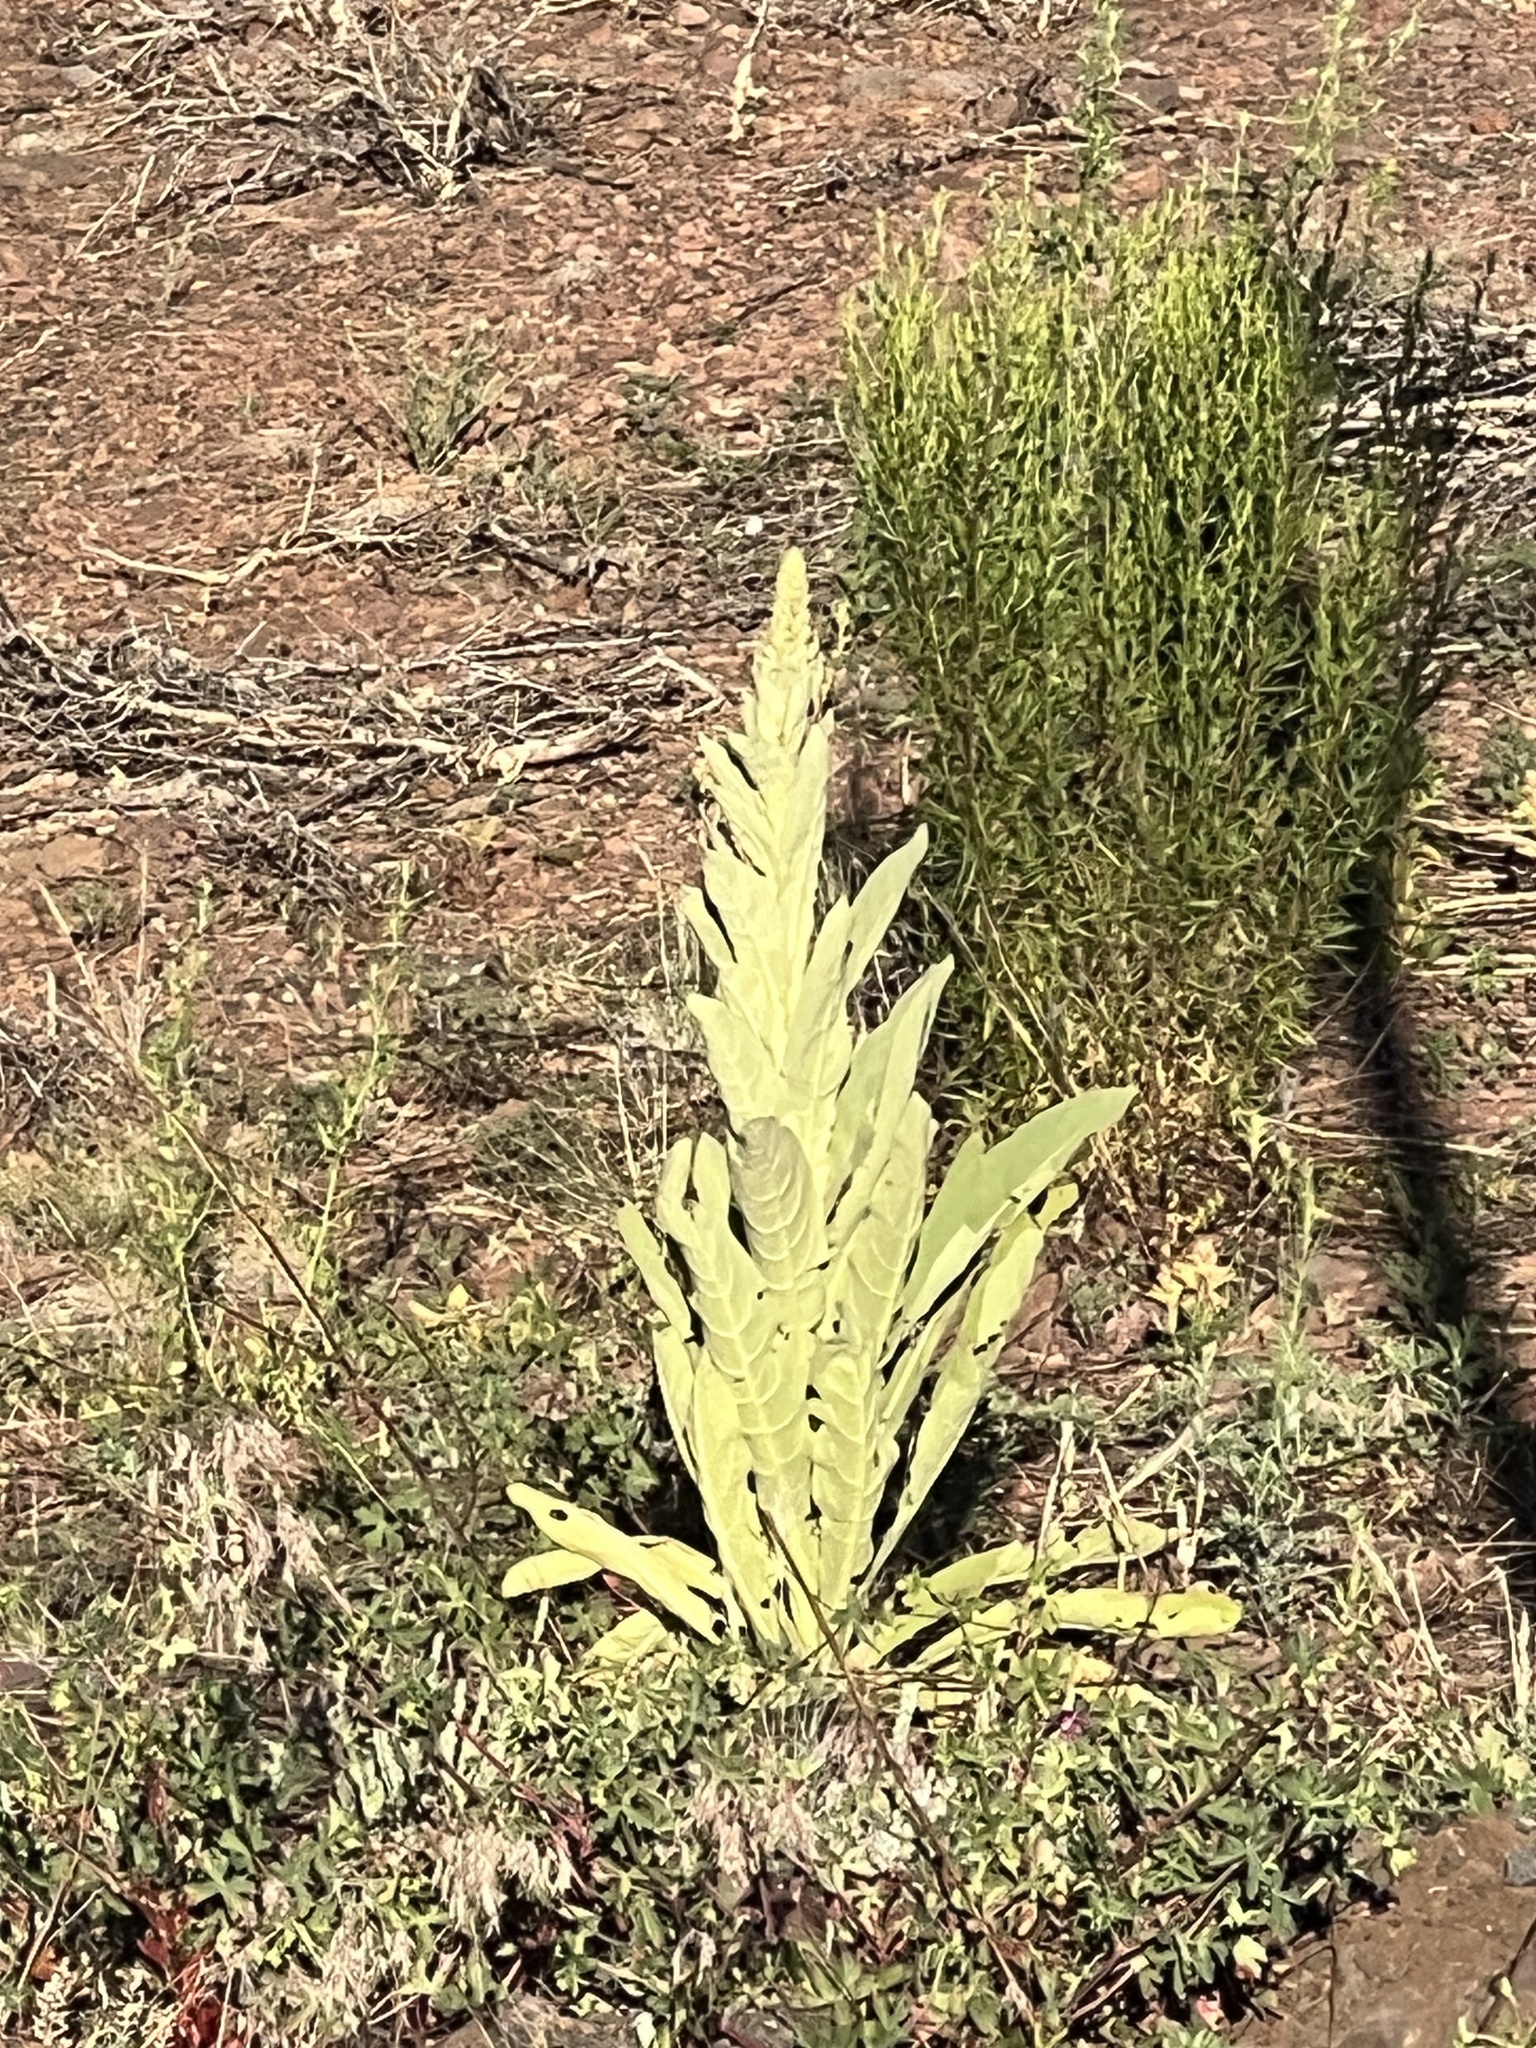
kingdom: Plantae
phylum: Tracheophyta
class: Magnoliopsida
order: Lamiales
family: Scrophulariaceae
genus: Verbascum
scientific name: Verbascum thapsus
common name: Common mullein
